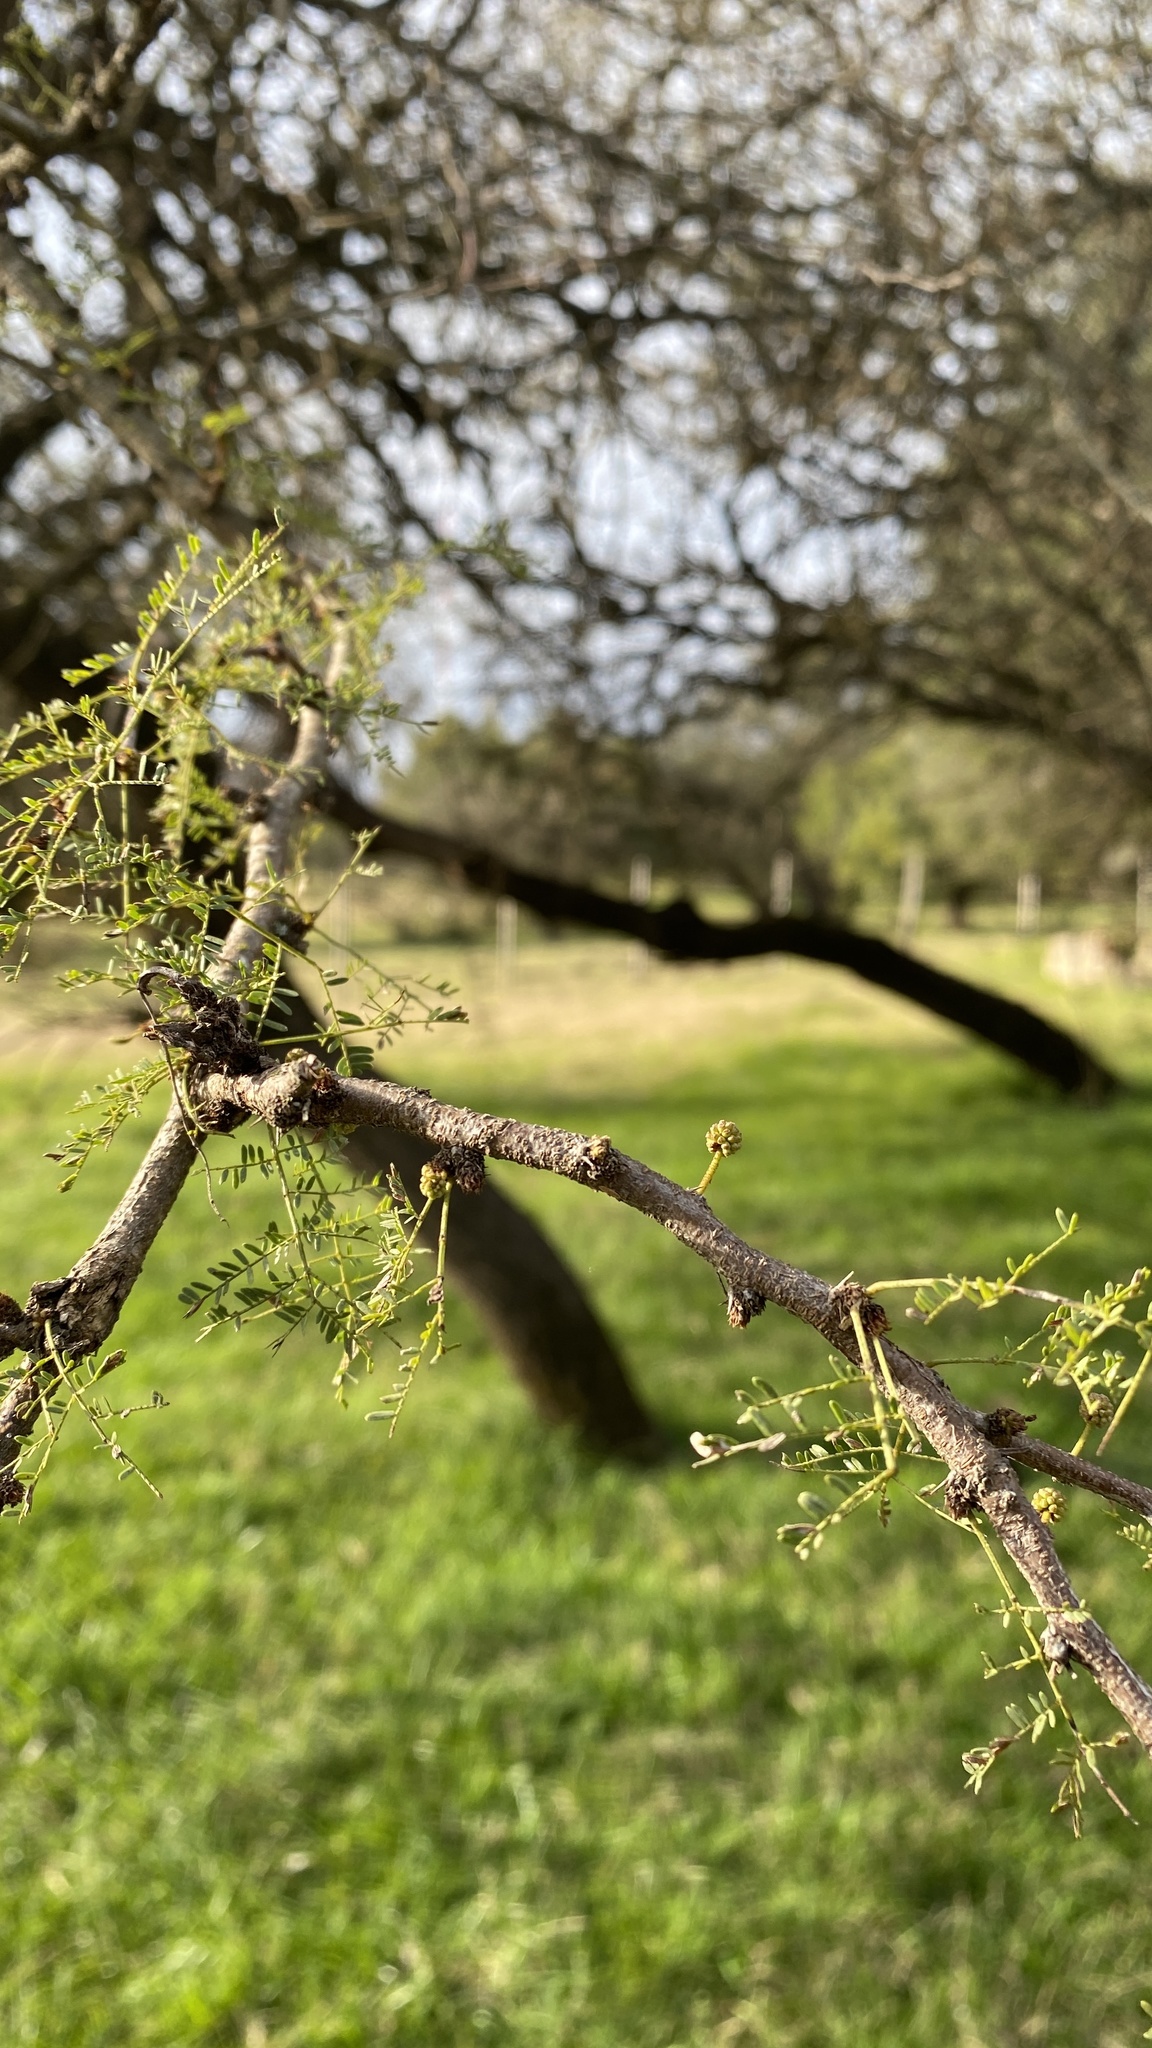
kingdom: Plantae
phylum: Tracheophyta
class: Magnoliopsida
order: Fabales
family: Fabaceae
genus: Vachellia
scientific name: Vachellia caven
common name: Roman cassie
